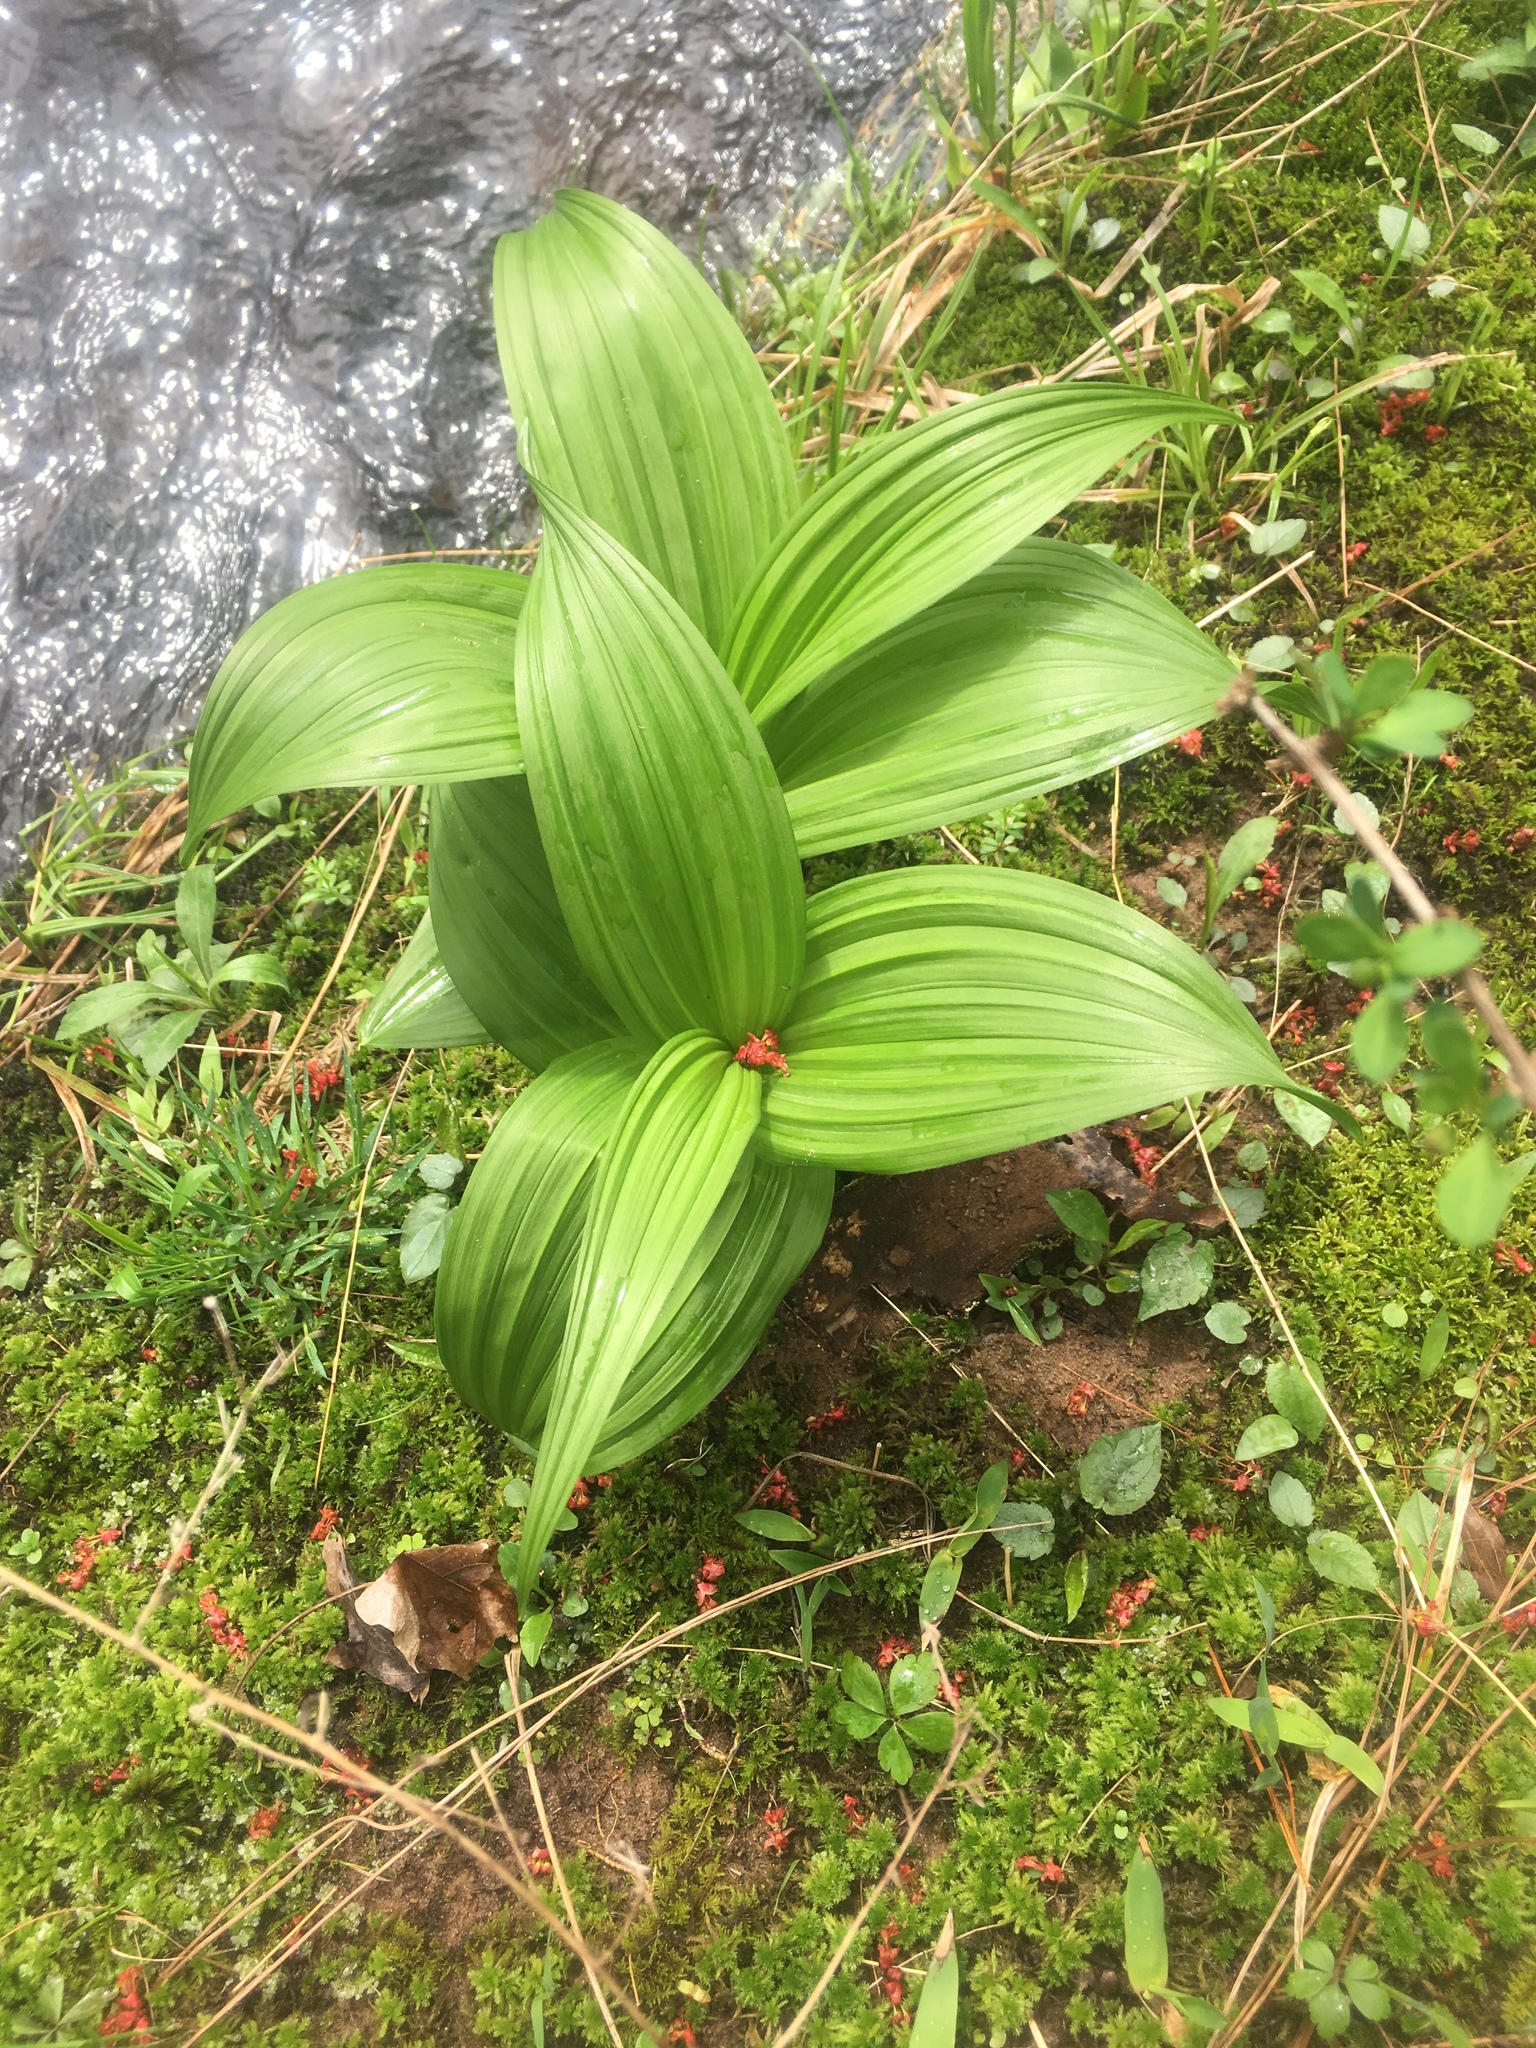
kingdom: Plantae
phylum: Tracheophyta
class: Liliopsida
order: Liliales
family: Melanthiaceae
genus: Veratrum
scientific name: Veratrum viride
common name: American false hellebore
